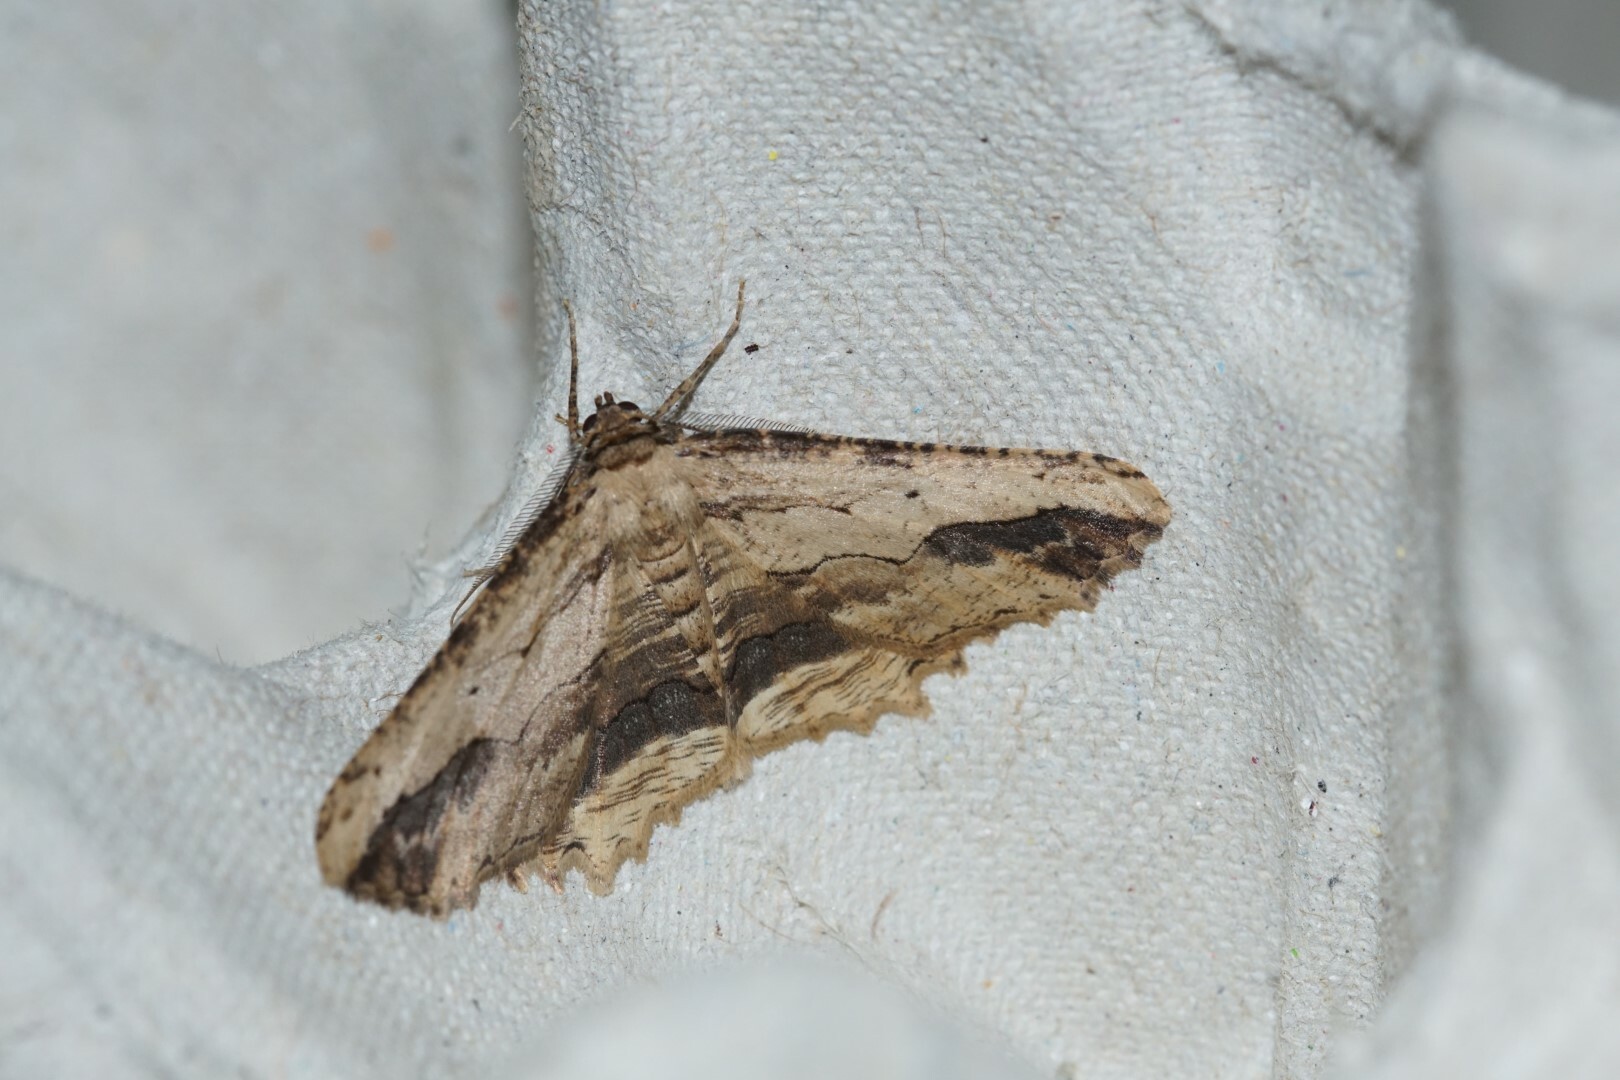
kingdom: Animalia
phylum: Arthropoda
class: Insecta
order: Lepidoptera
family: Geometridae
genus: Menophra
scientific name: Menophra abruptaria
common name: Waved umber
